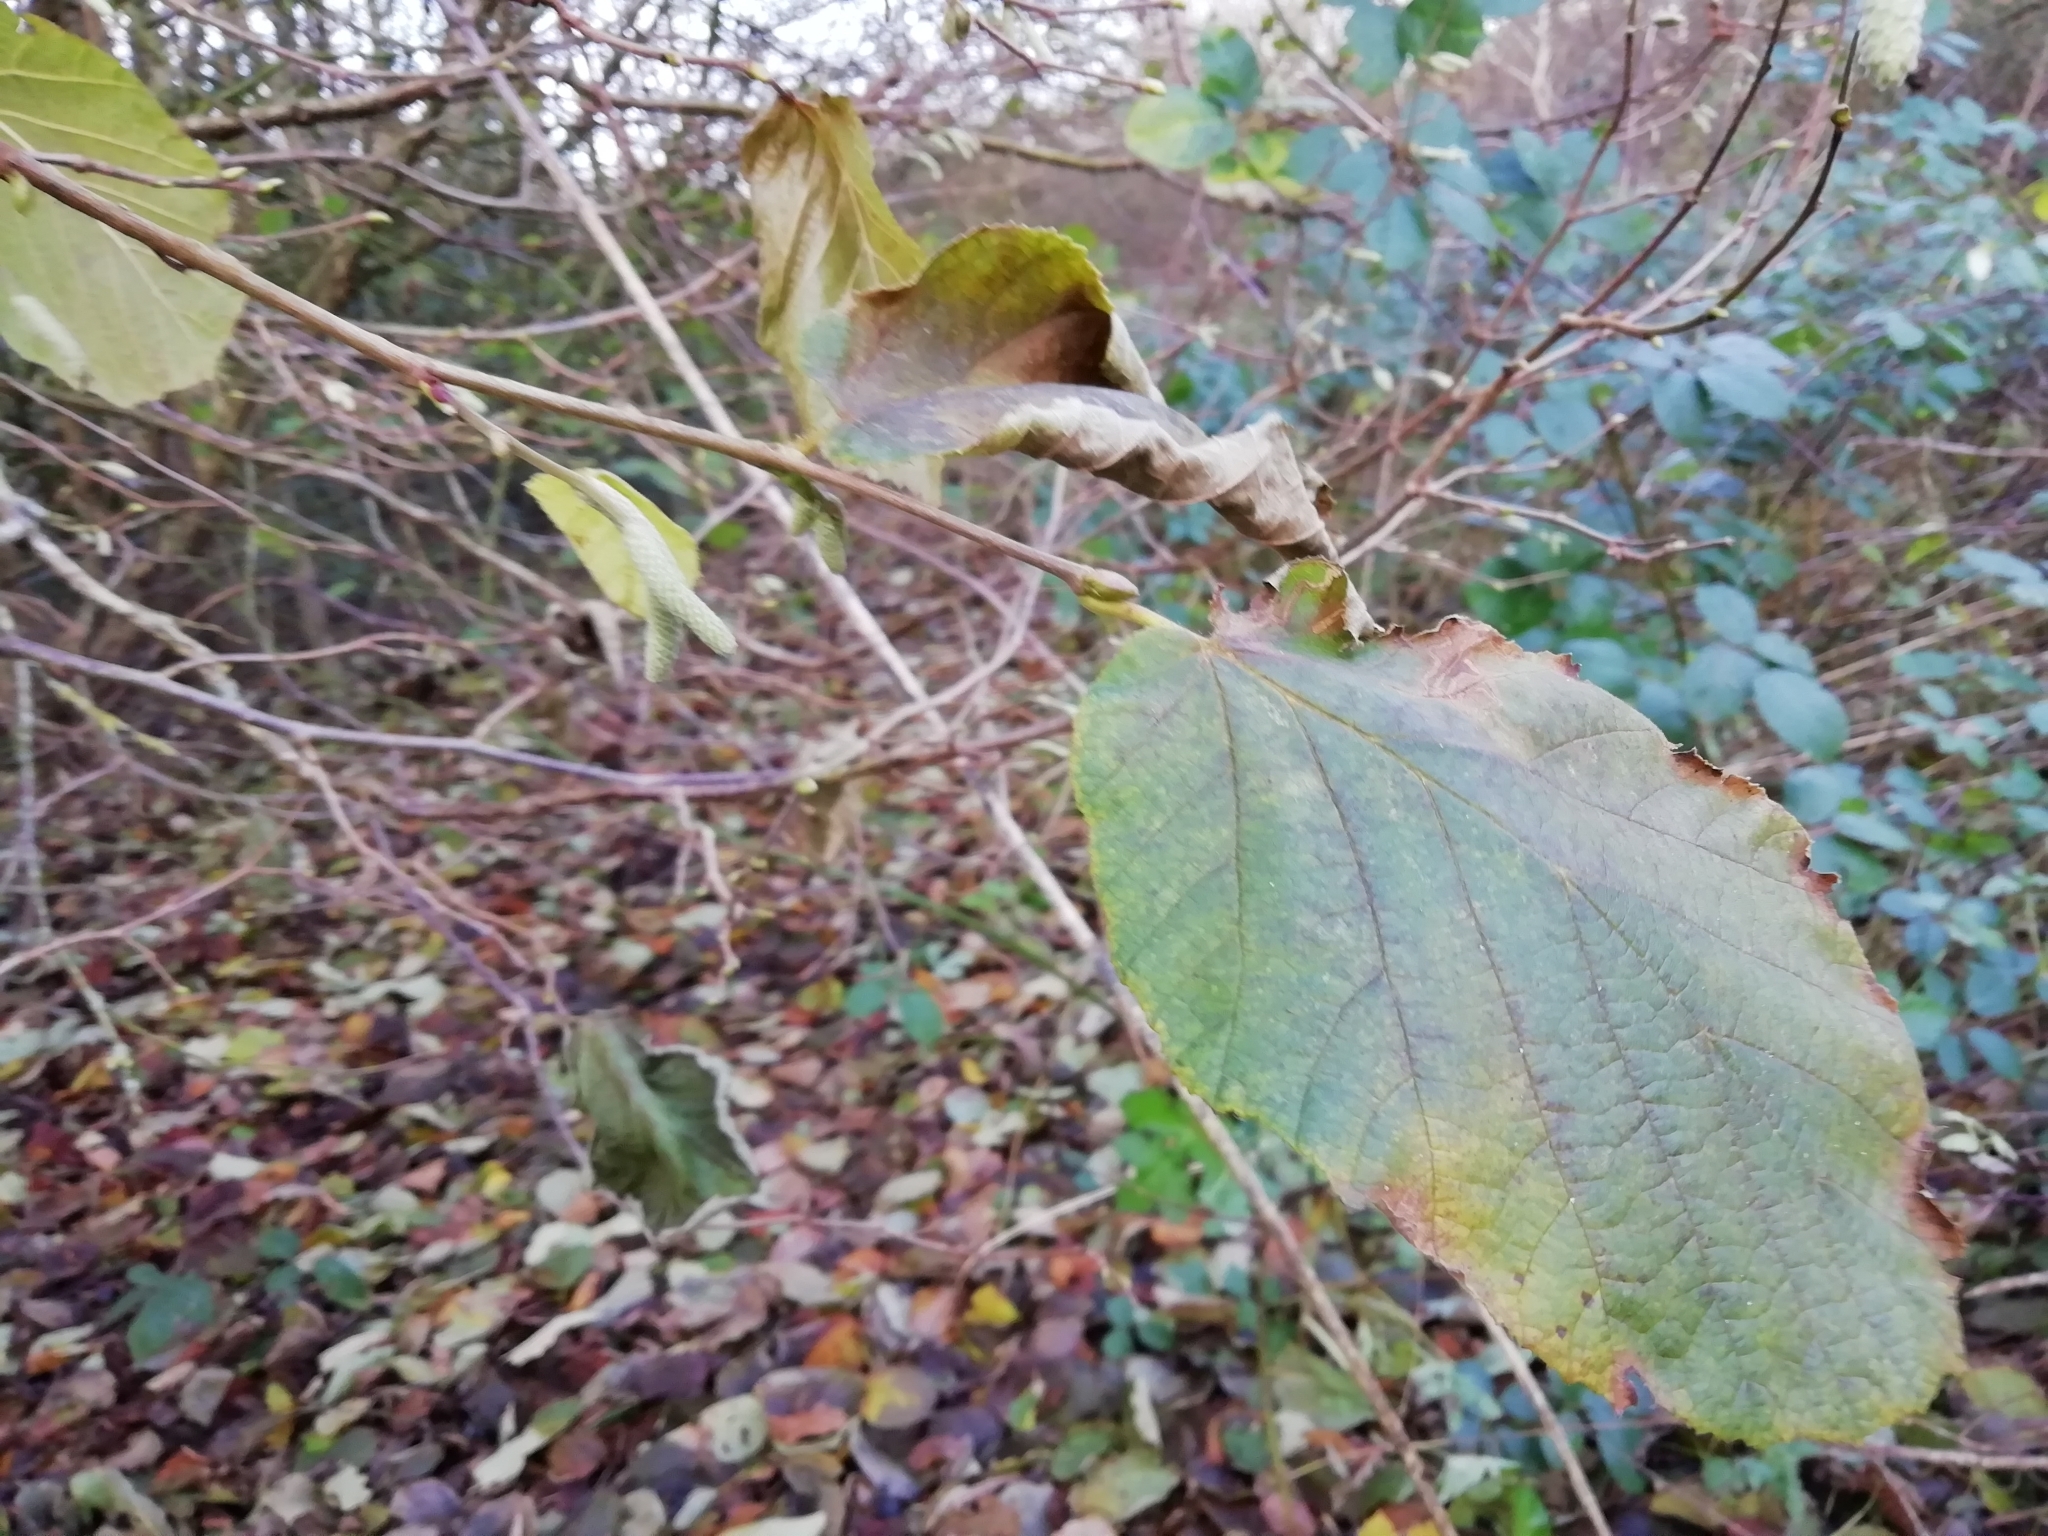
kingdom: Plantae
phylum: Tracheophyta
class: Magnoliopsida
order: Fagales
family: Betulaceae
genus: Corylus
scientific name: Corylus avellana
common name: European hazel
